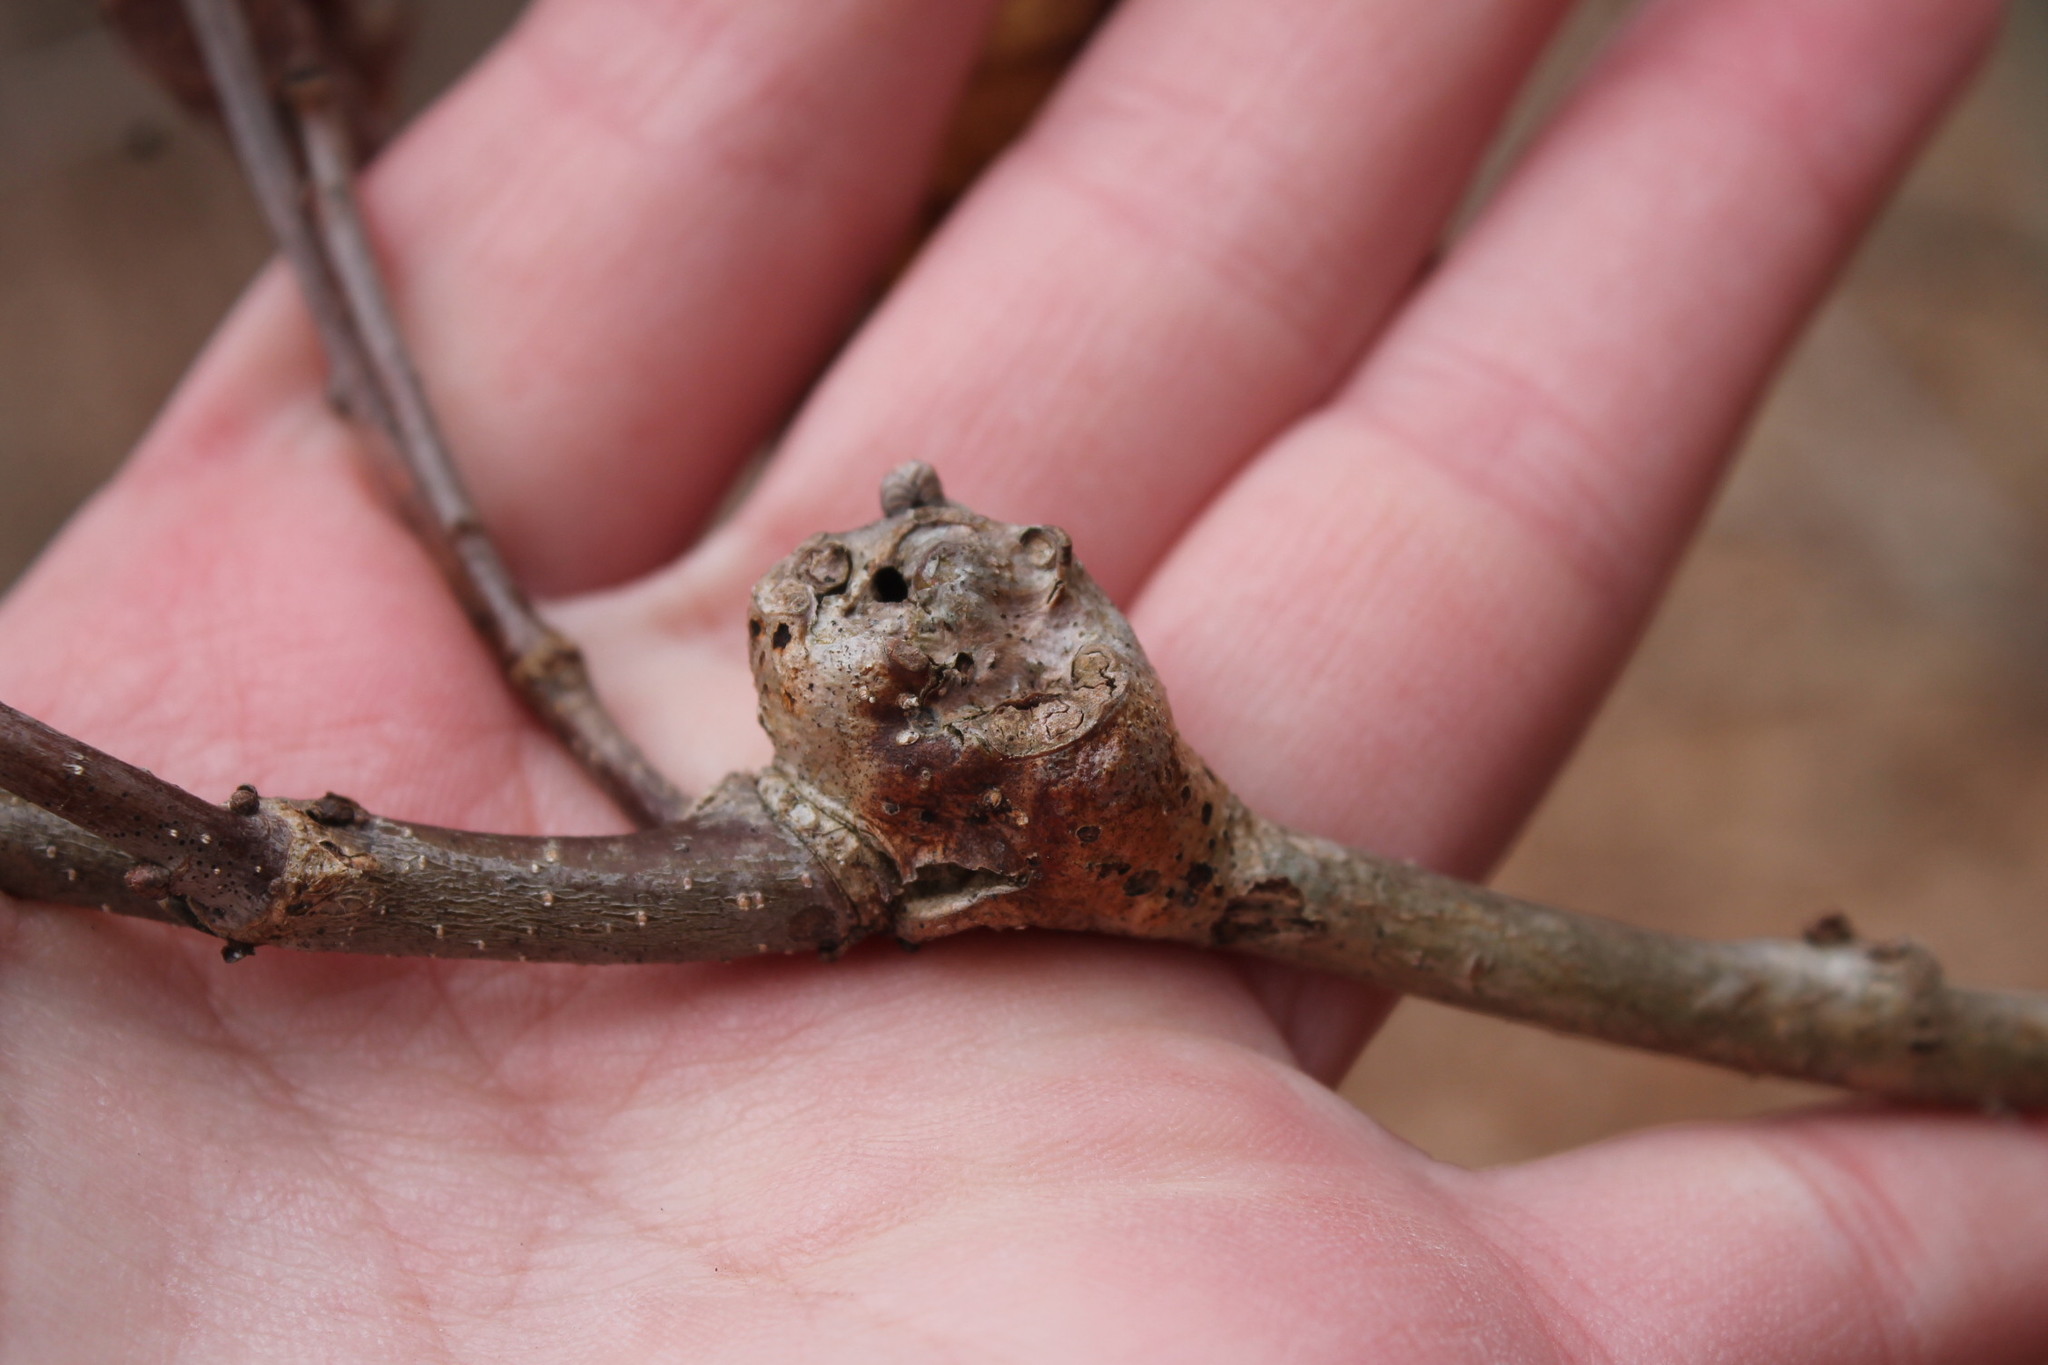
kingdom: Animalia
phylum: Arthropoda
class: Insecta
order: Hymenoptera
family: Cynipidae
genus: Callirhytis
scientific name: Callirhytis clavula
